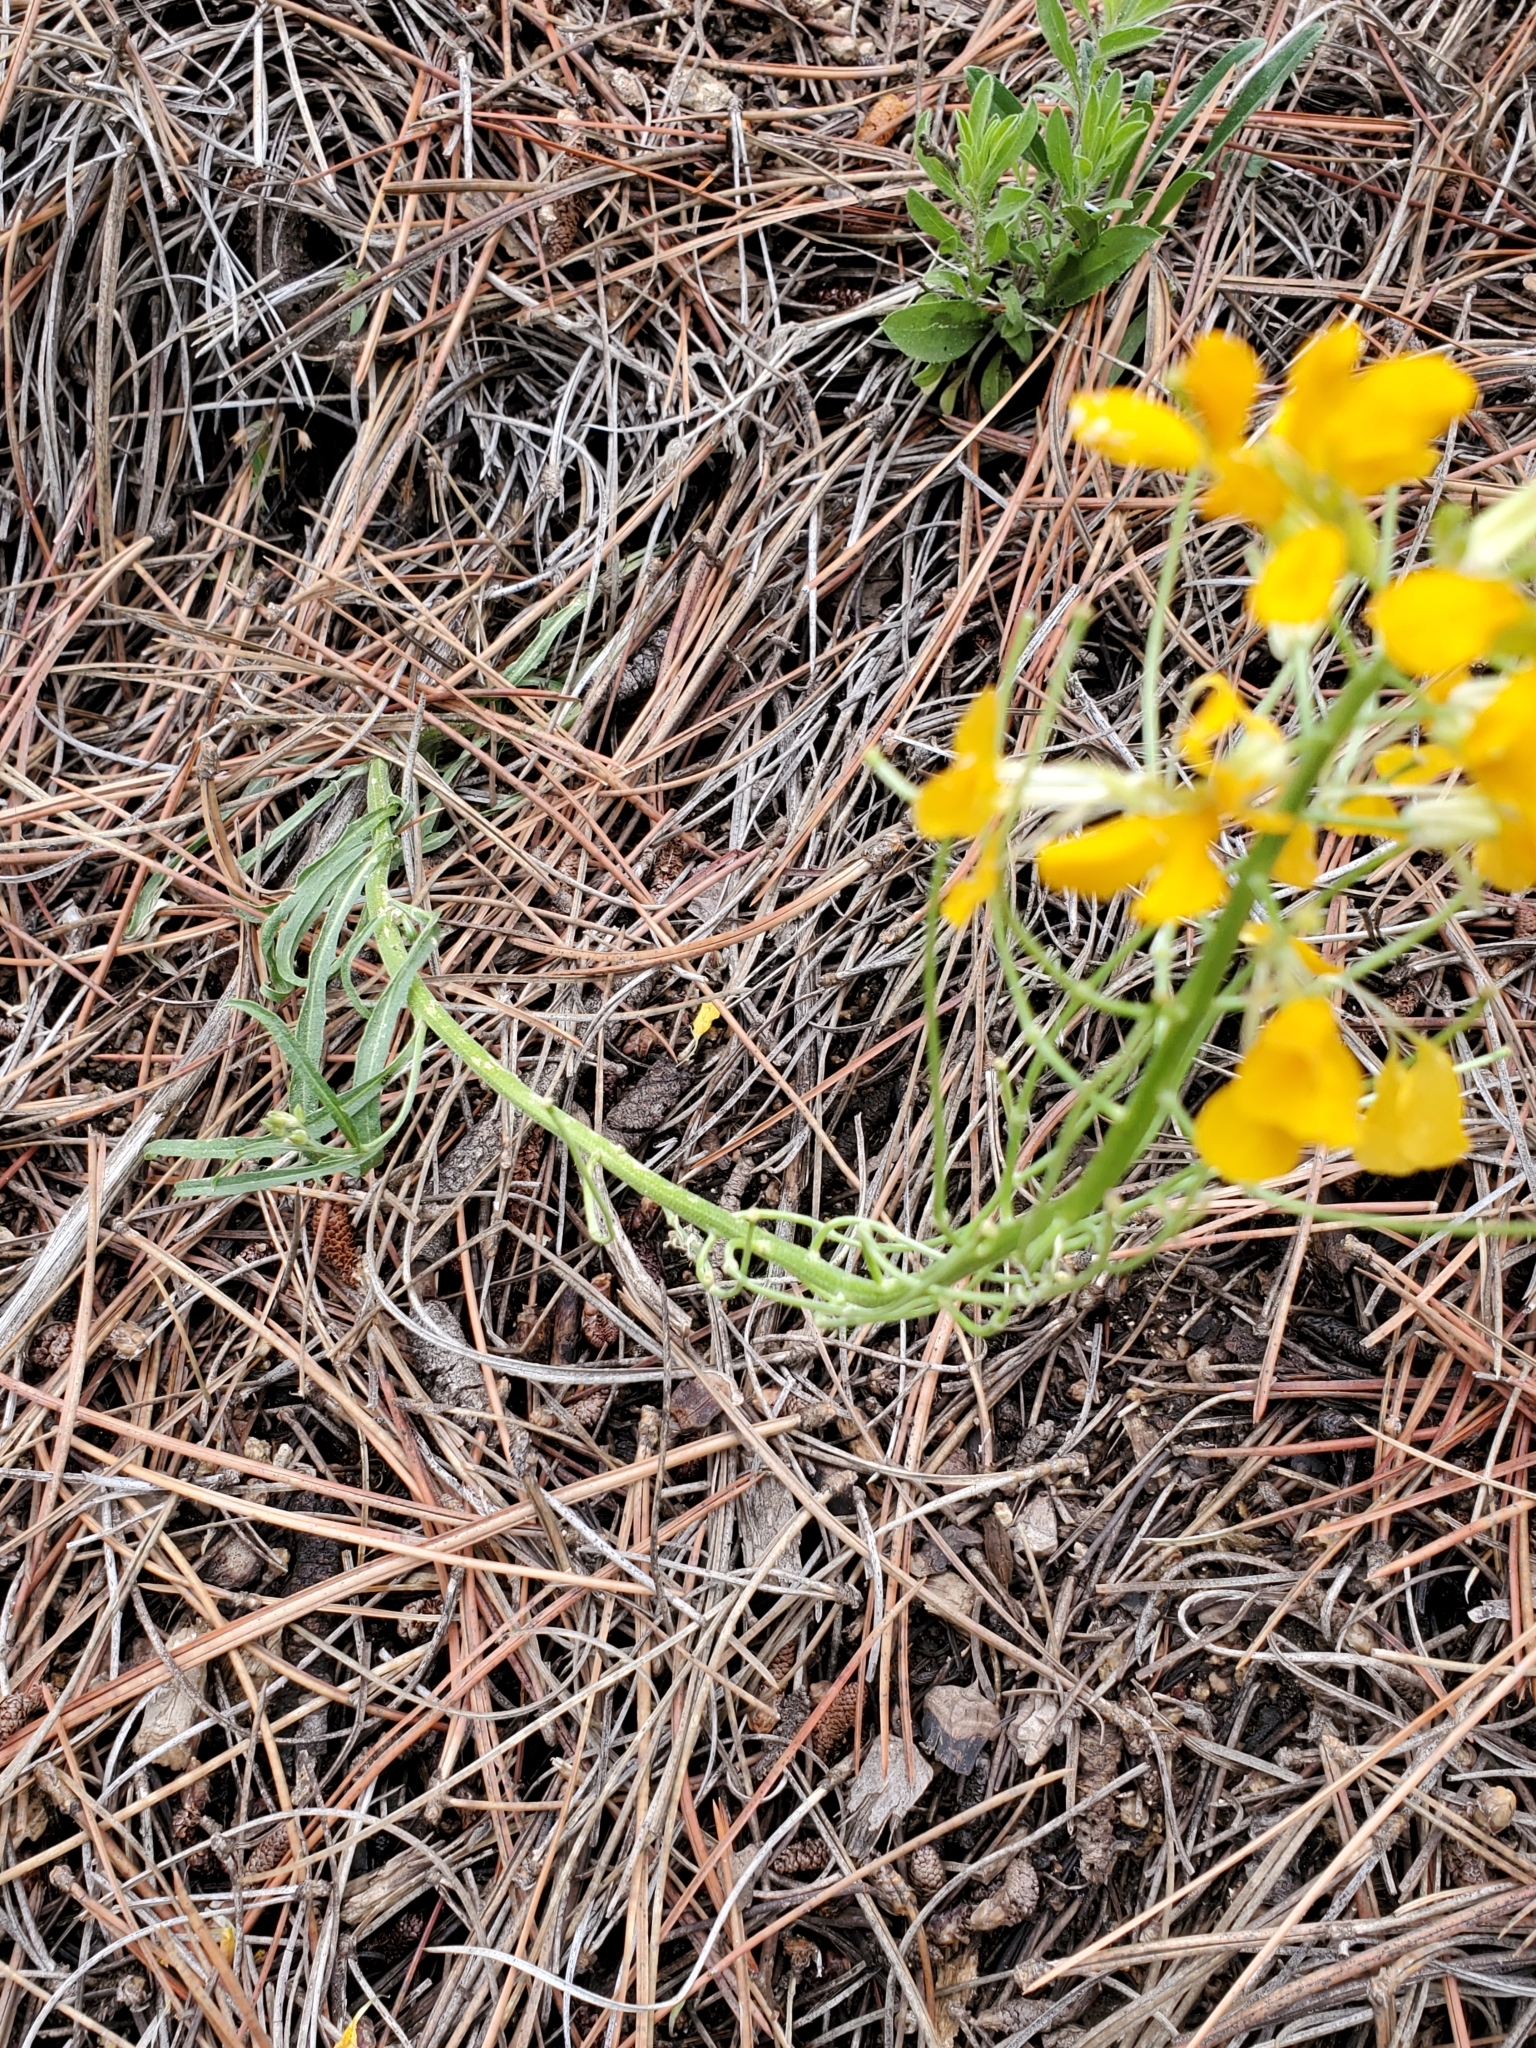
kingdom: Plantae
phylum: Tracheophyta
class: Magnoliopsida
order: Brassicales
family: Brassicaceae
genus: Erysimum
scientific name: Erysimum capitatum
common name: Western wallflower
